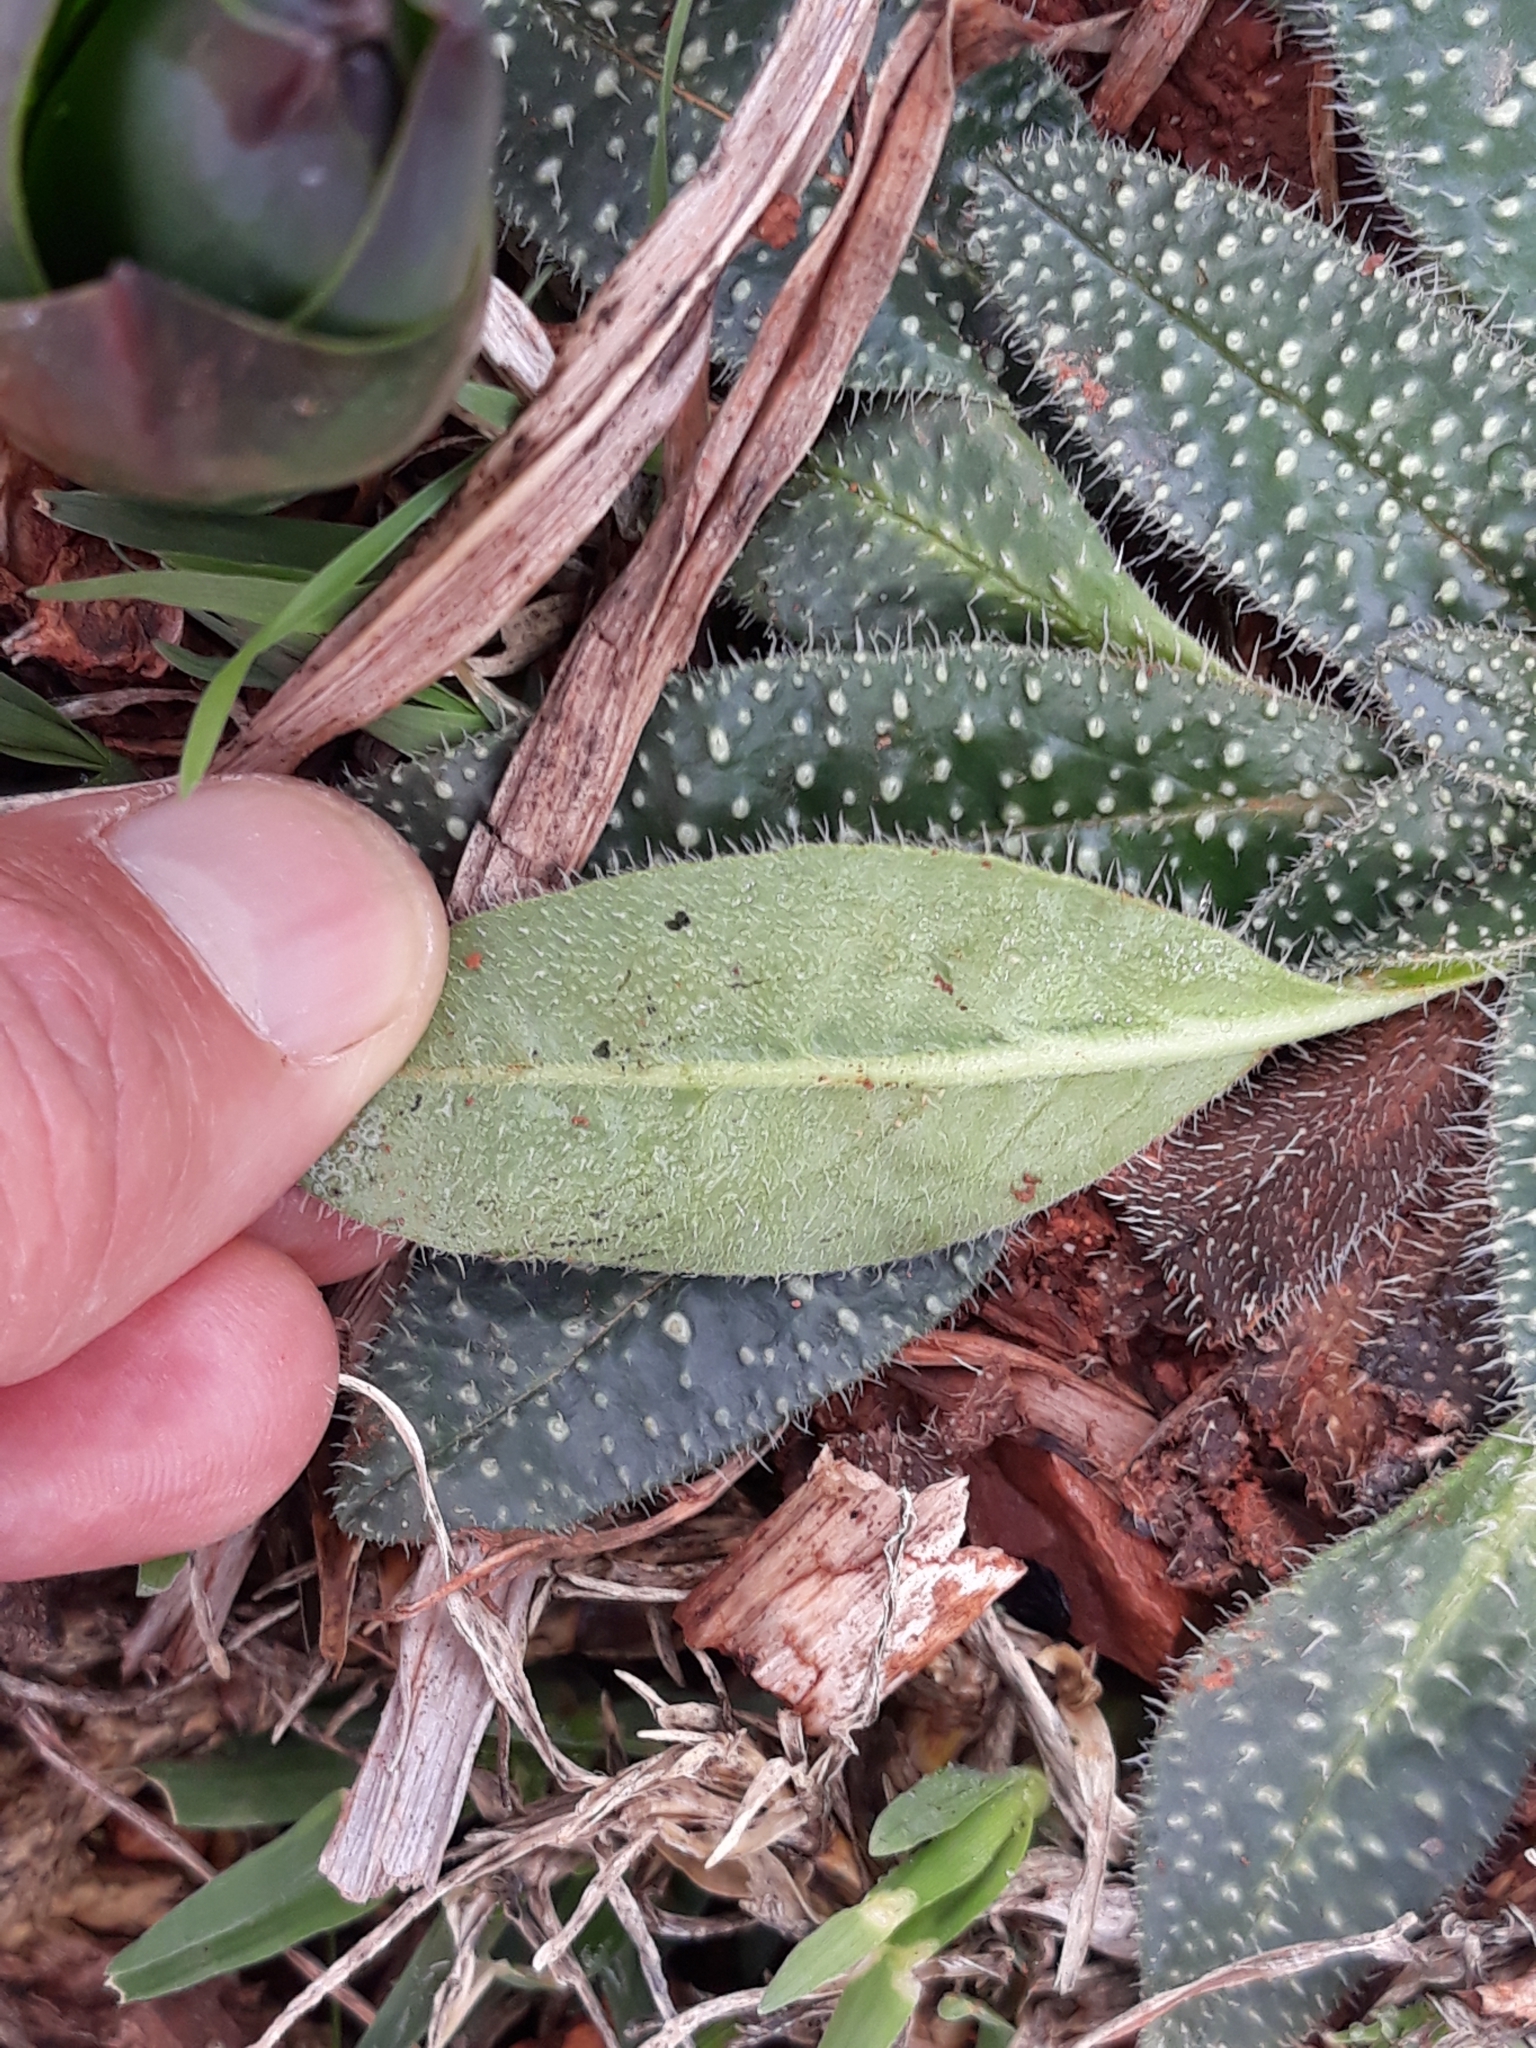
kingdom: Plantae
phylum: Tracheophyta
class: Magnoliopsida
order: Boraginales
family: Boraginaceae
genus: Echium
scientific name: Echium asperrimum
